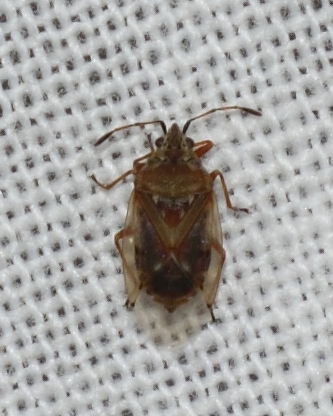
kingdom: Animalia
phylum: Arthropoda
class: Insecta
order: Hemiptera
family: Lygaeidae
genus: Kleidocerys
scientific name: Kleidocerys resedae
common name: Birch catkin bug
